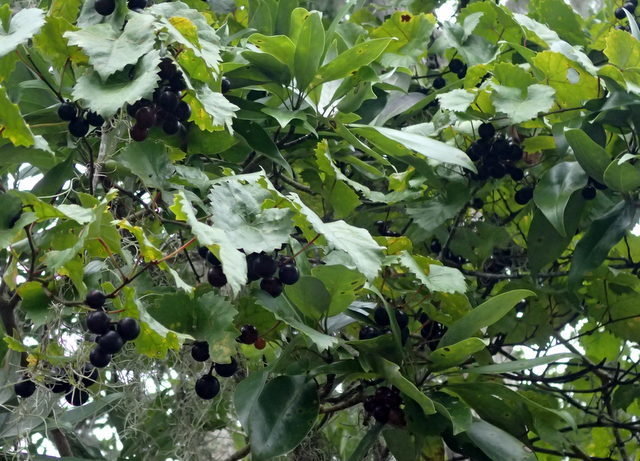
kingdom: Plantae
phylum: Tracheophyta
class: Magnoliopsida
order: Vitales
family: Vitaceae
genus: Vitis
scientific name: Vitis rotundifolia
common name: Muscadine grape
